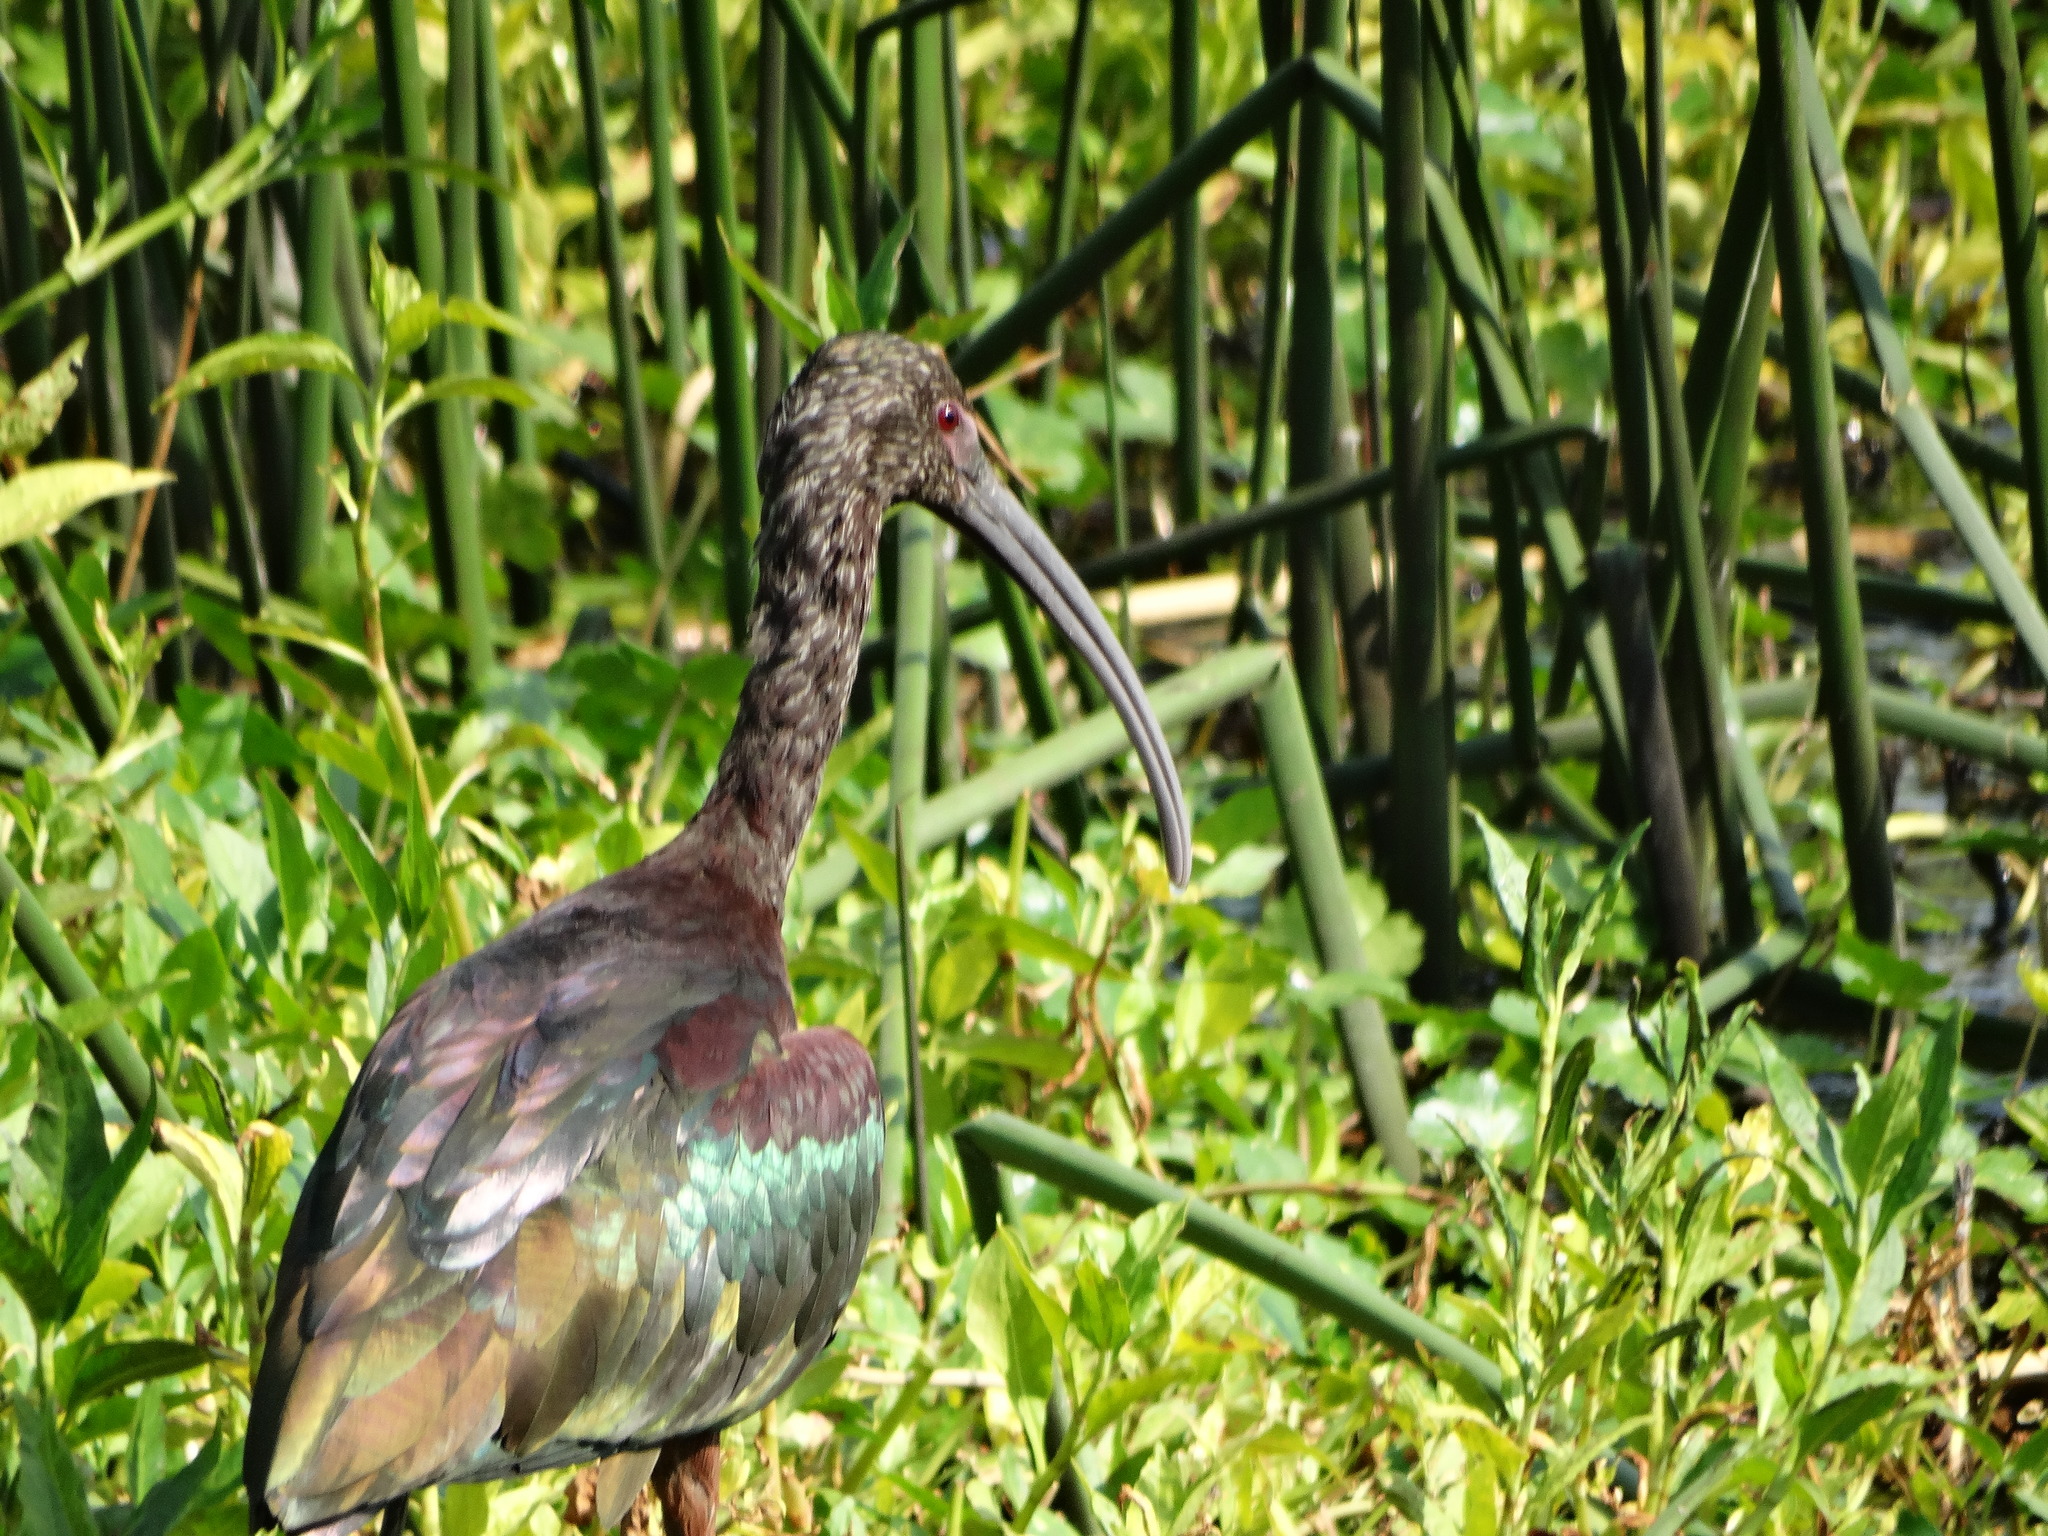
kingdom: Animalia
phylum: Chordata
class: Aves
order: Pelecaniformes
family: Threskiornithidae
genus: Plegadis
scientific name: Plegadis chihi
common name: White-faced ibis
